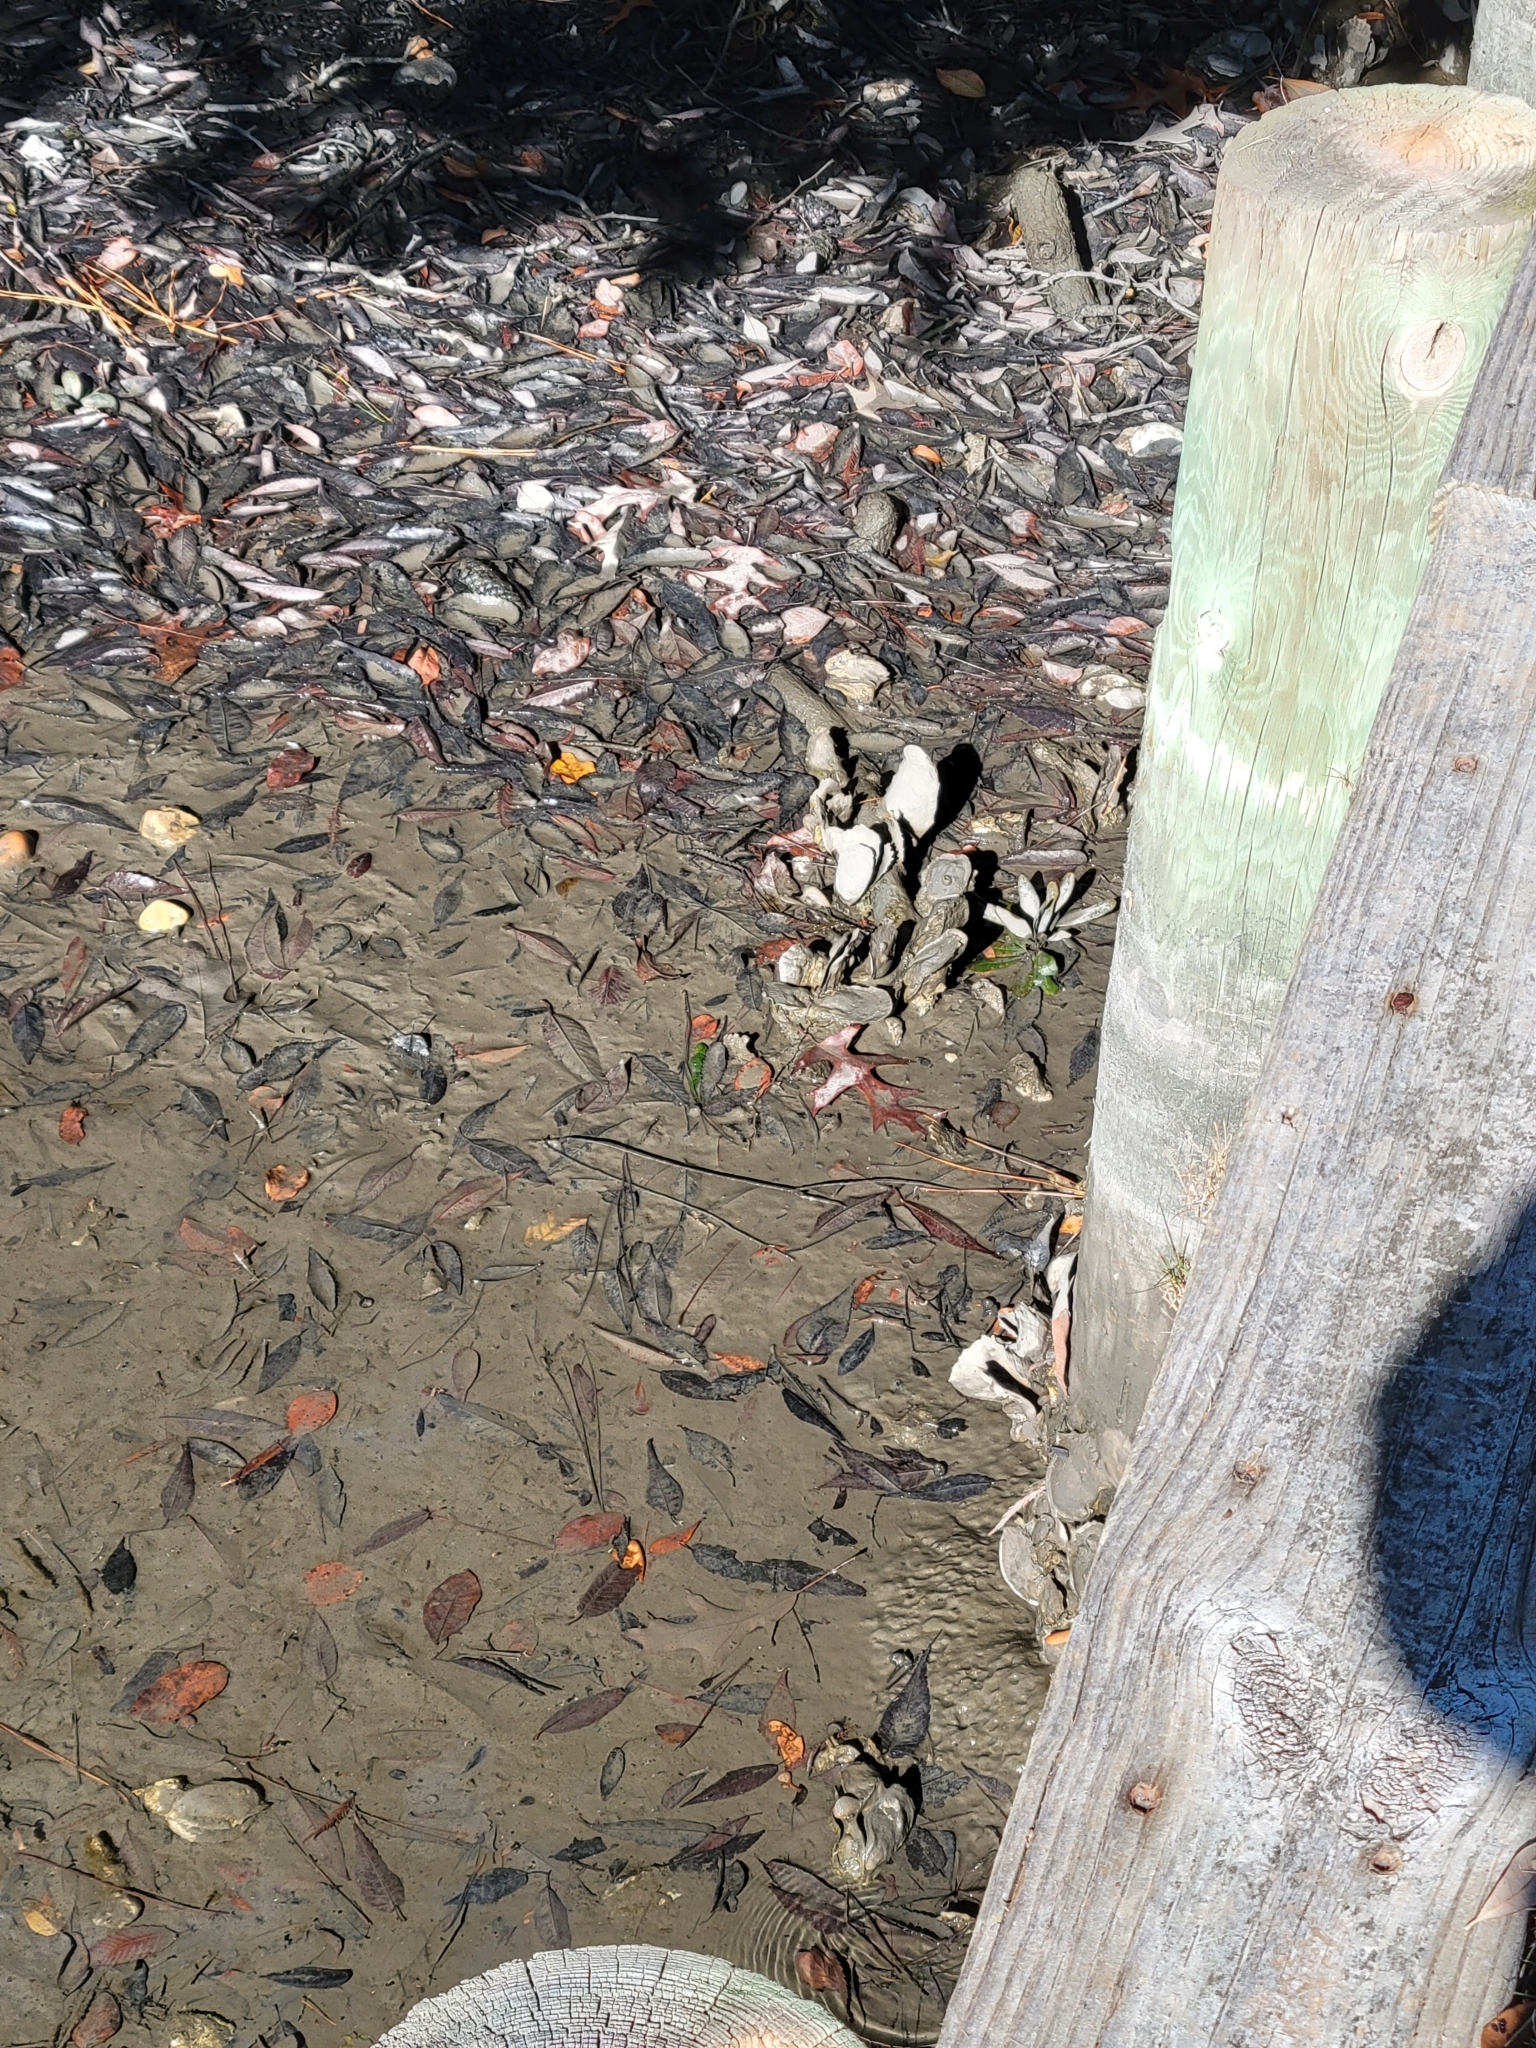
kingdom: Animalia
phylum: Mollusca
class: Bivalvia
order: Ostreida
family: Ostreidae
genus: Crassostrea
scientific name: Crassostrea virginica
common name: American oyster
